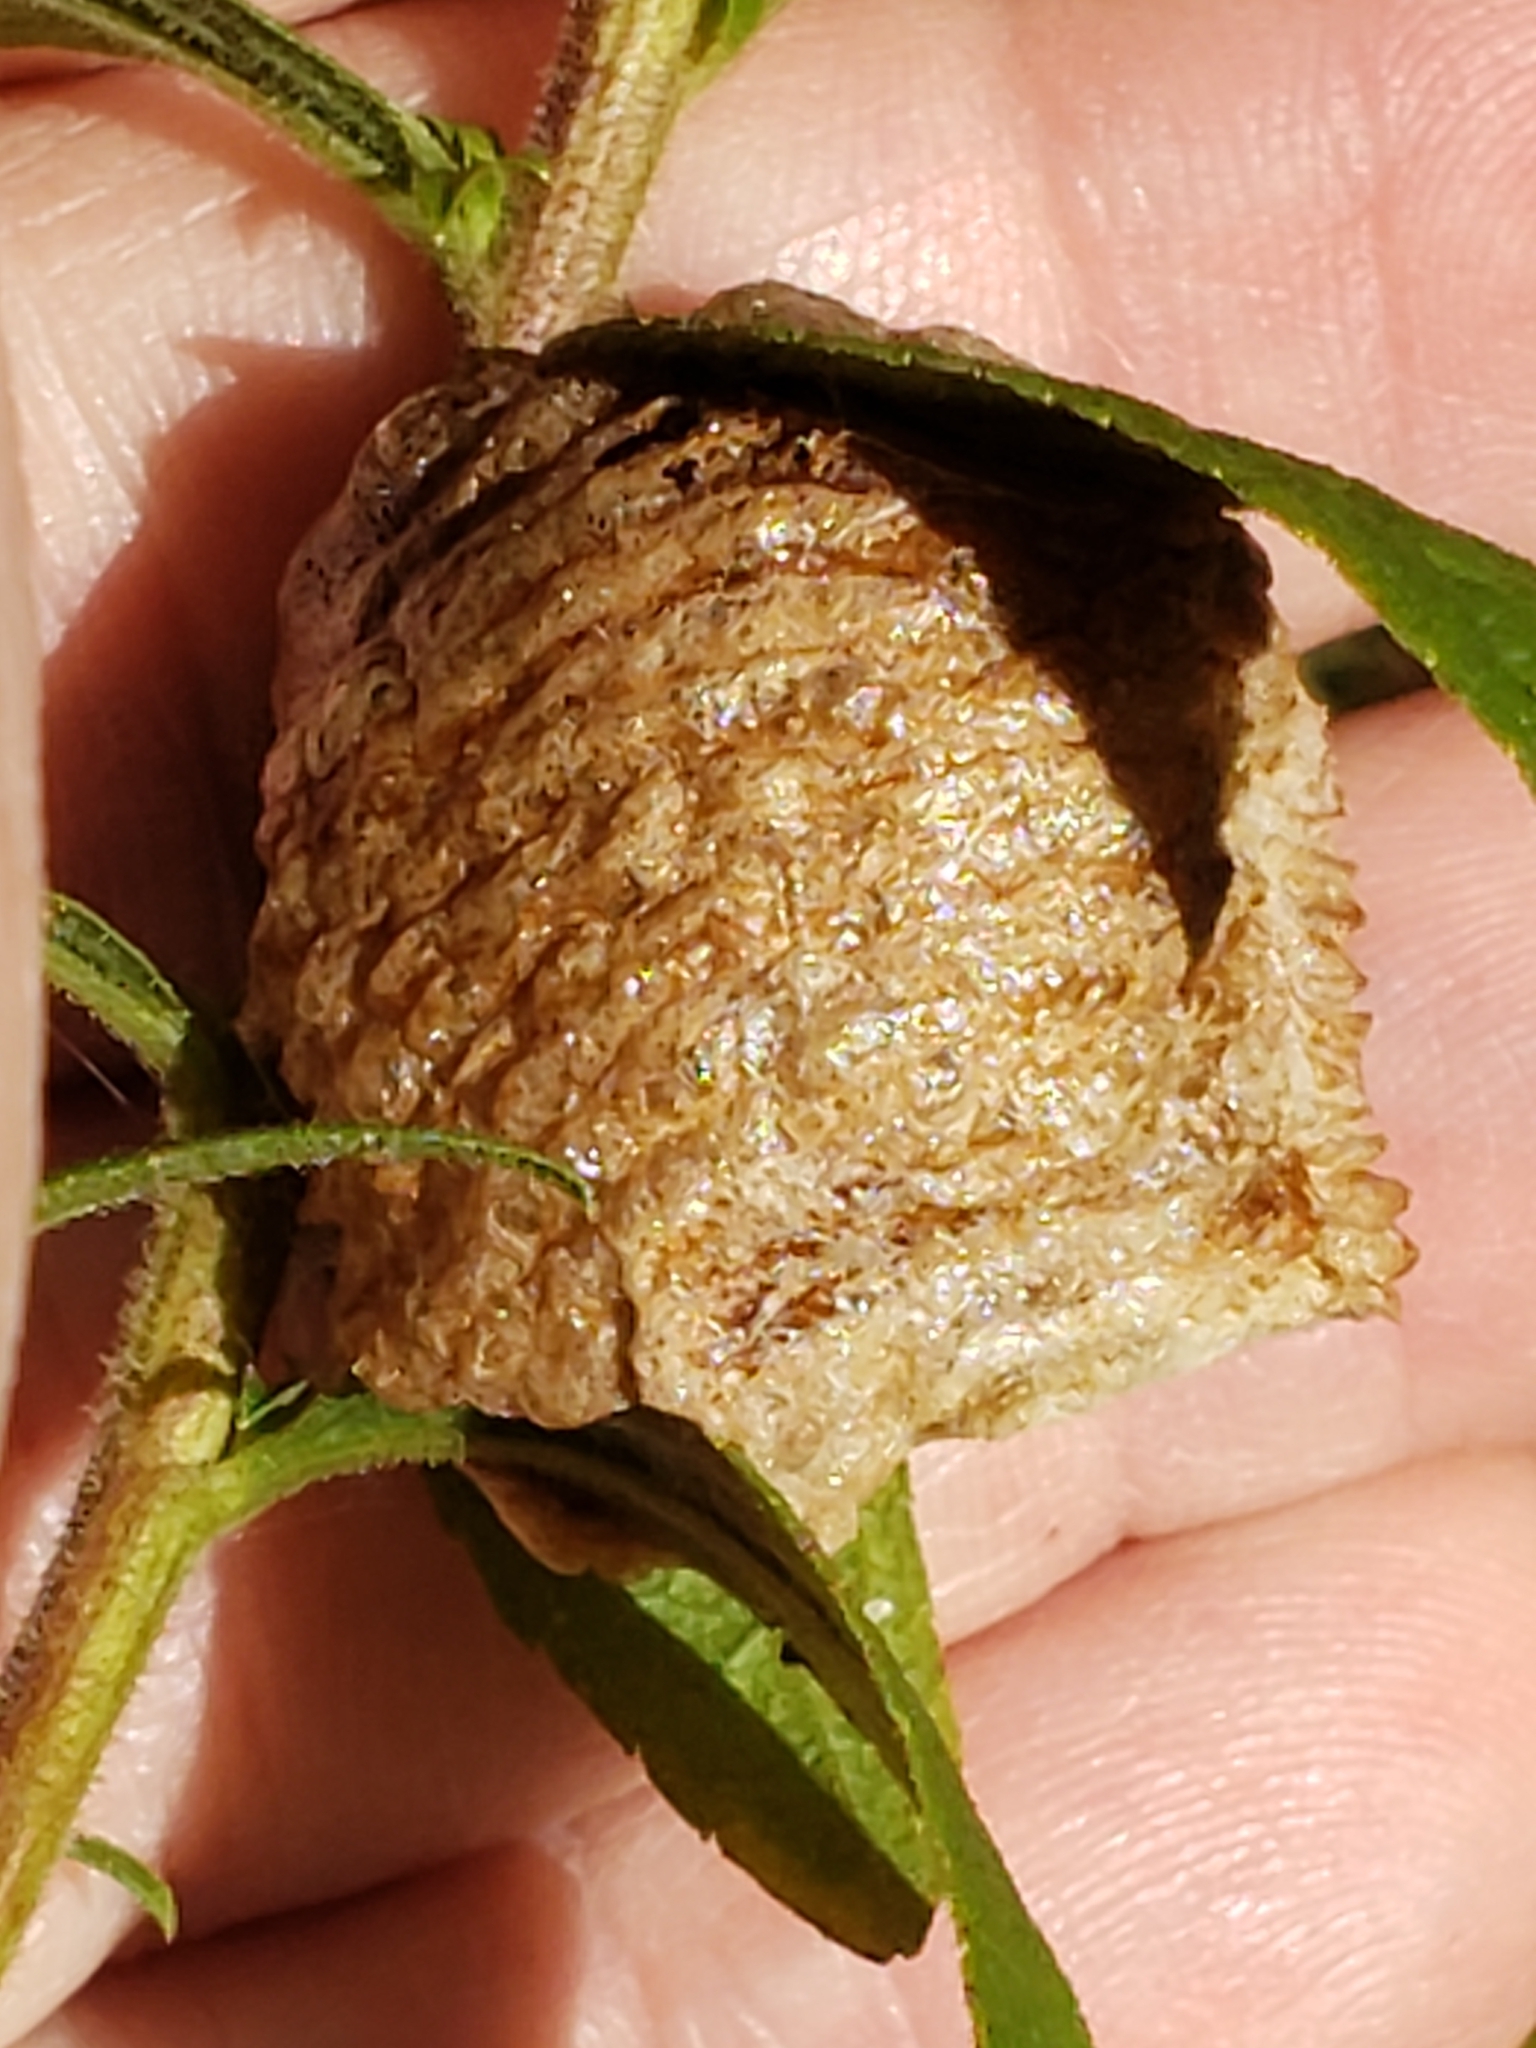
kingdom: Animalia
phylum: Arthropoda
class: Insecta
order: Mantodea
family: Mantidae
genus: Tenodera
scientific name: Tenodera sinensis
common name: Chinese mantis
